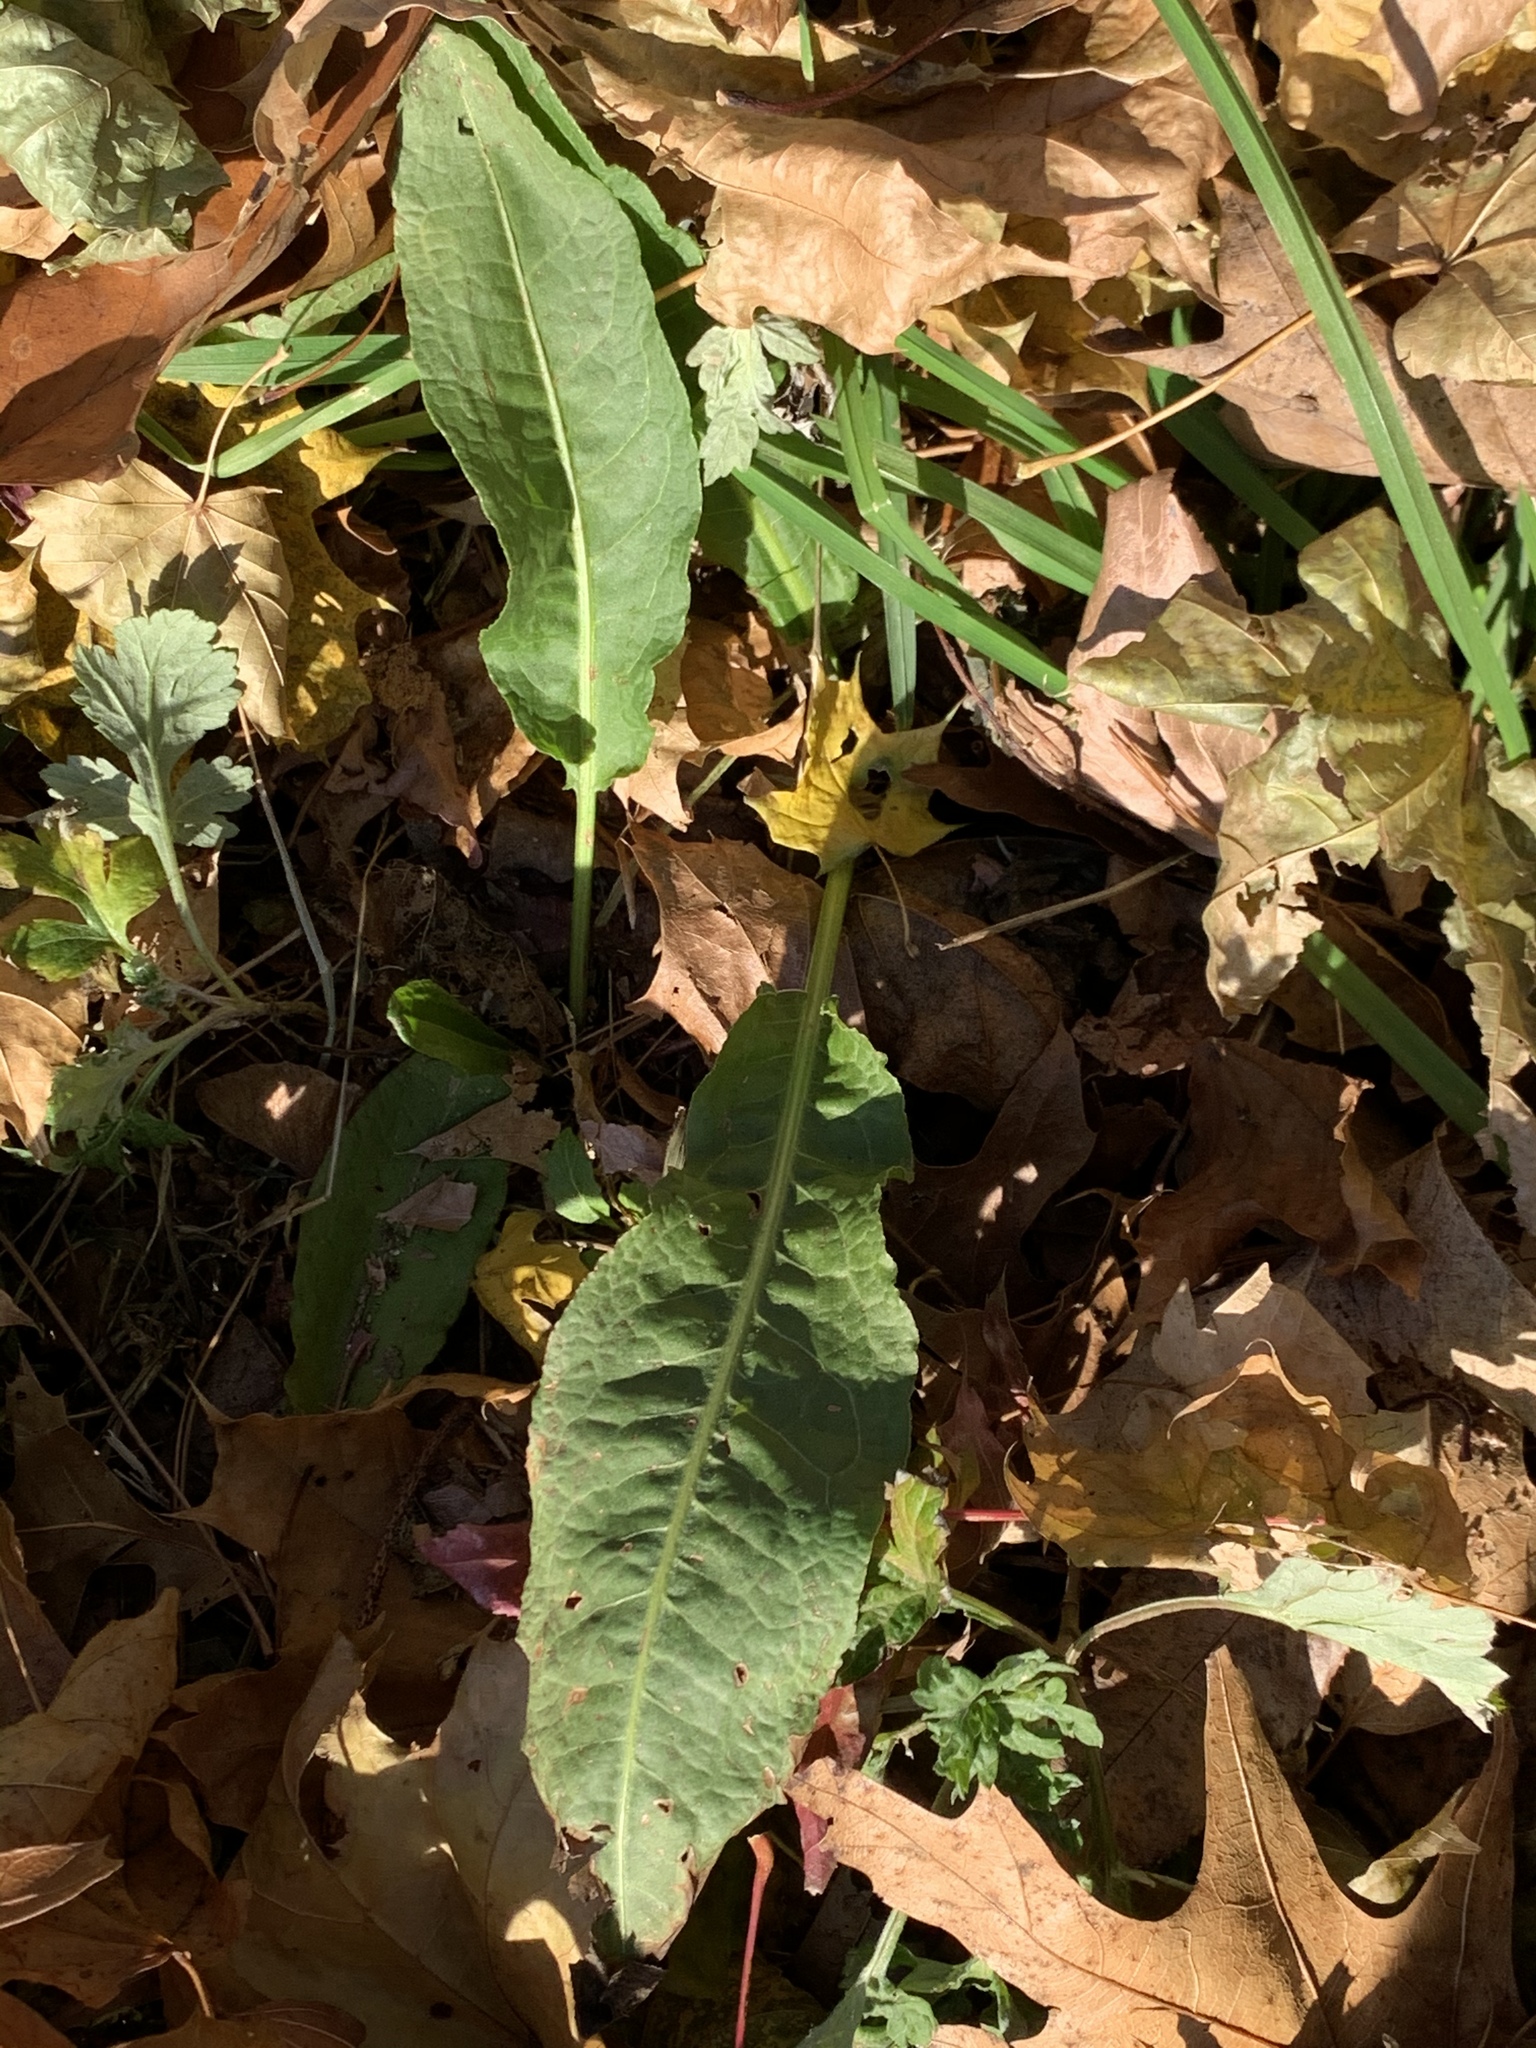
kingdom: Plantae
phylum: Tracheophyta
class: Magnoliopsida
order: Caryophyllales
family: Polygonaceae
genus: Rumex
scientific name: Rumex crispus
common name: Curled dock
